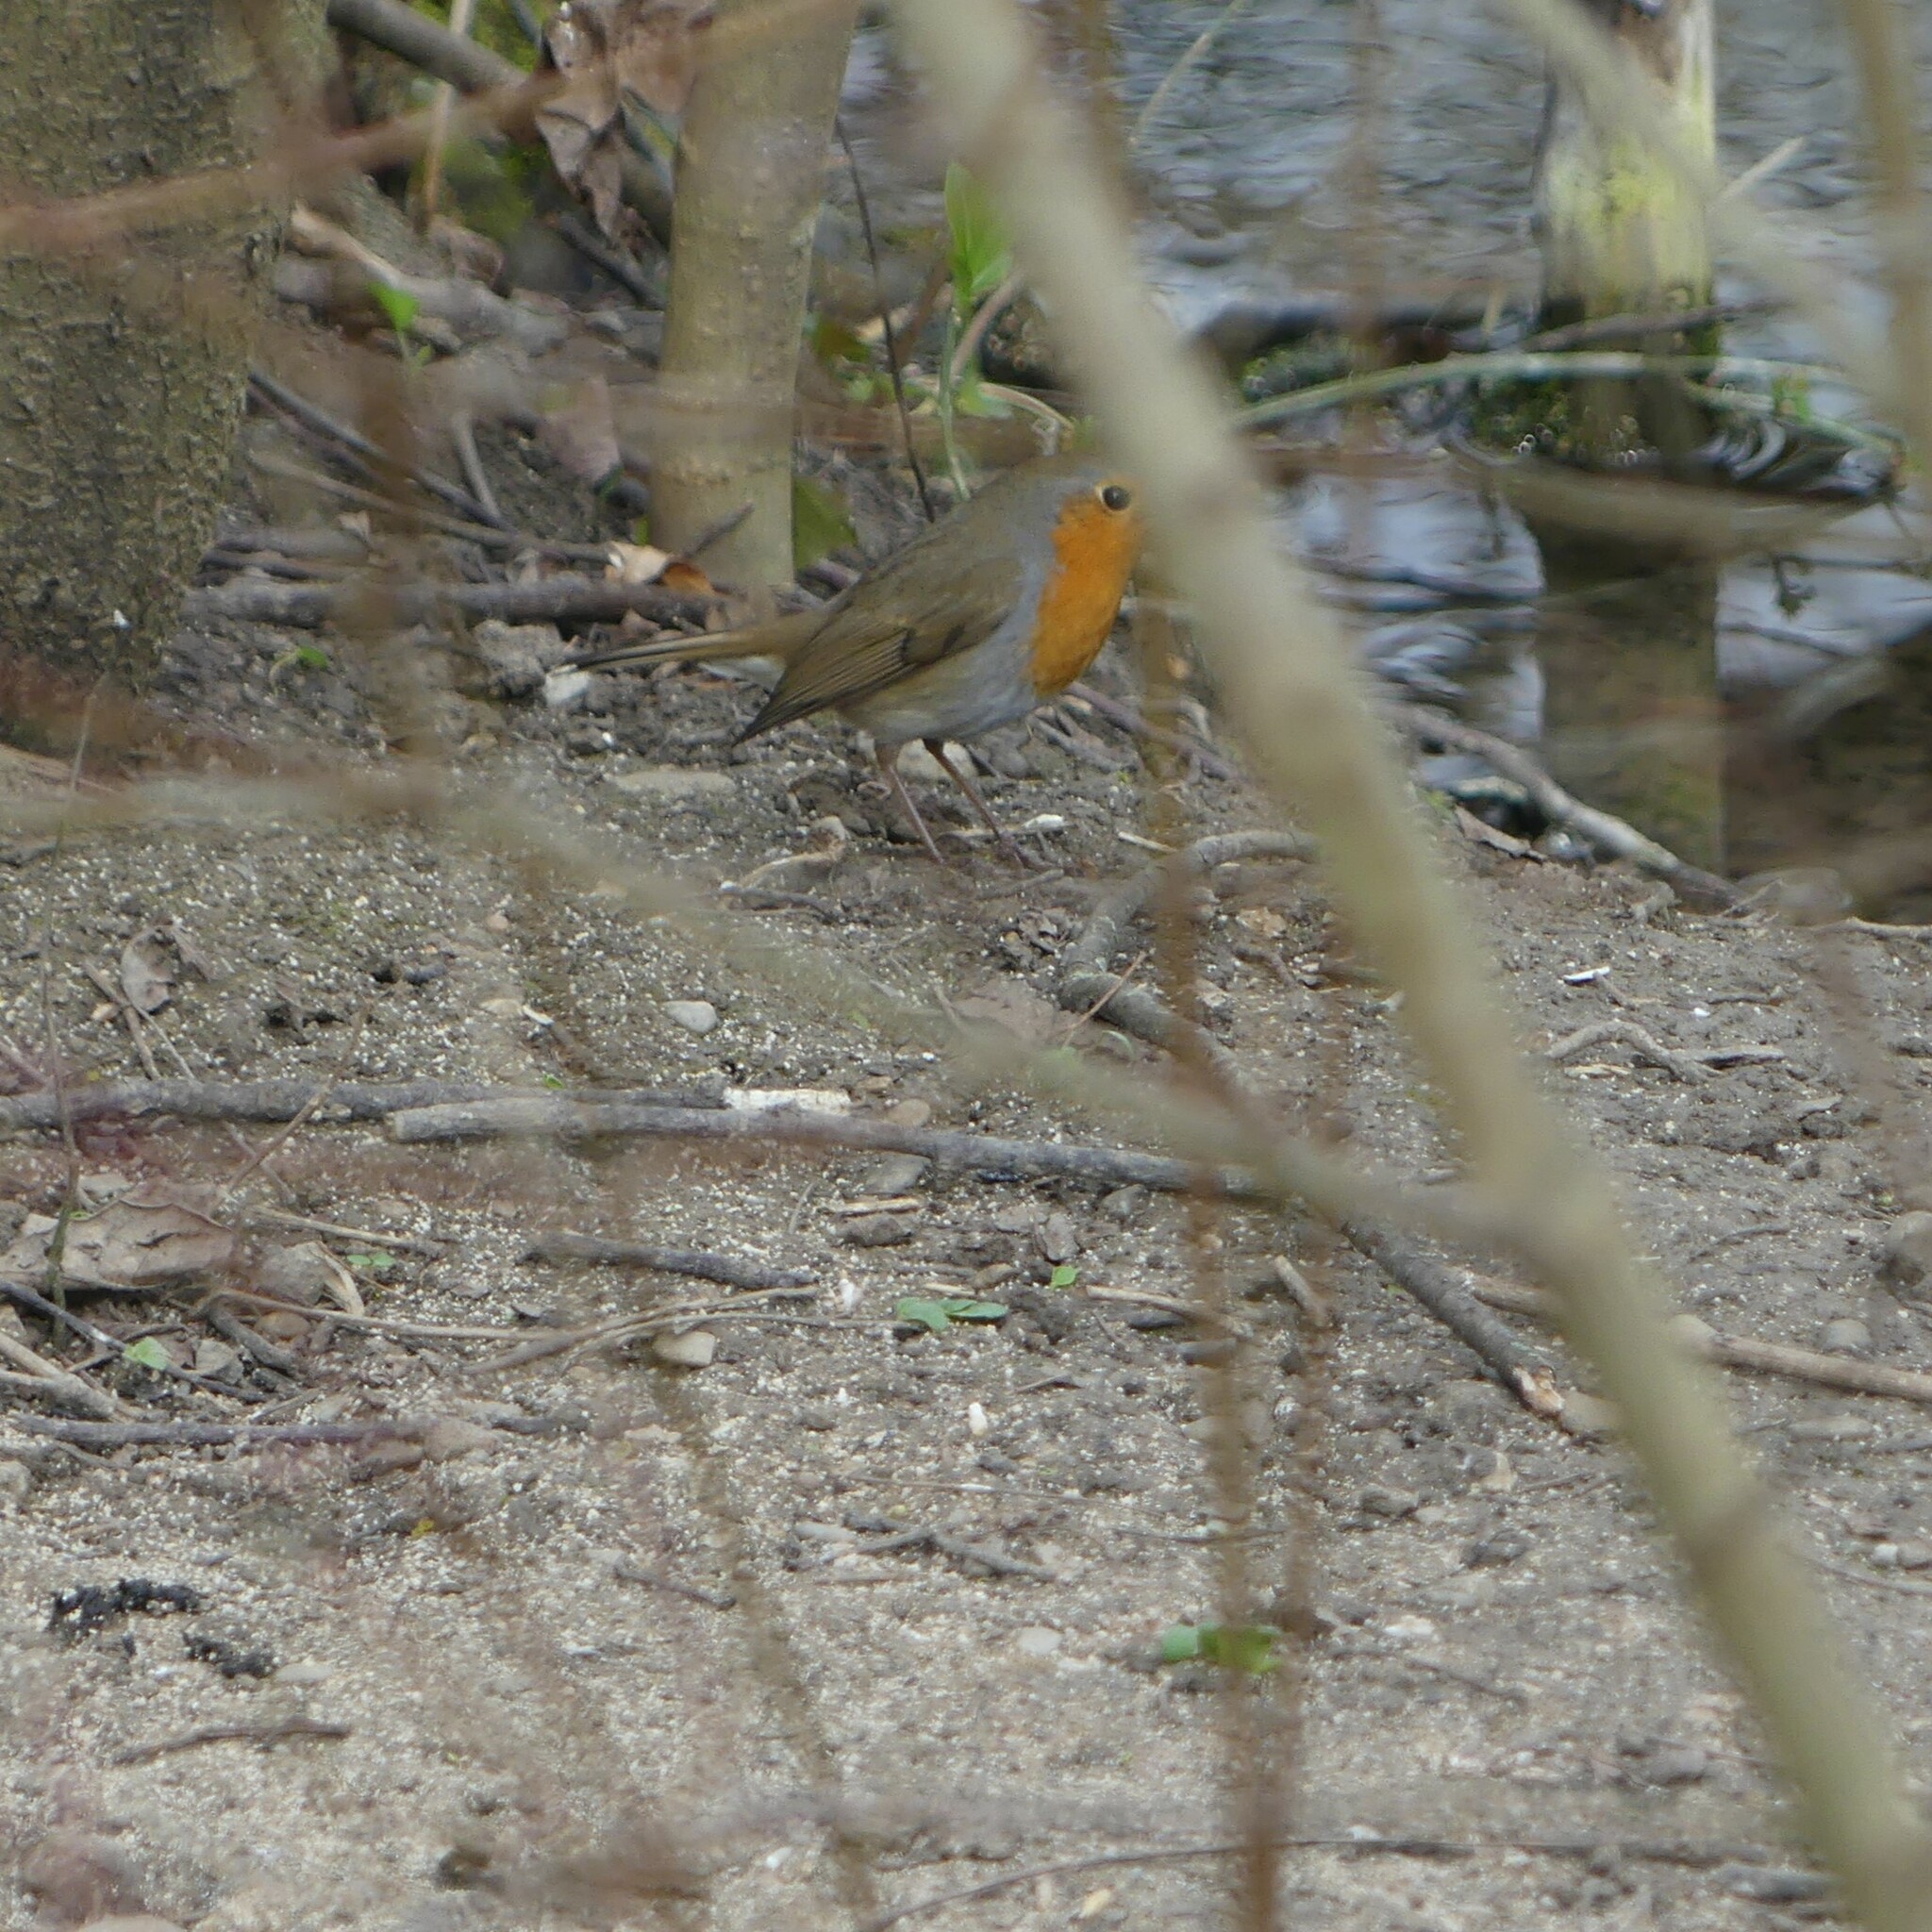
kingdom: Animalia
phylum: Chordata
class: Aves
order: Passeriformes
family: Muscicapidae
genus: Erithacus
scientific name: Erithacus rubecula
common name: European robin
